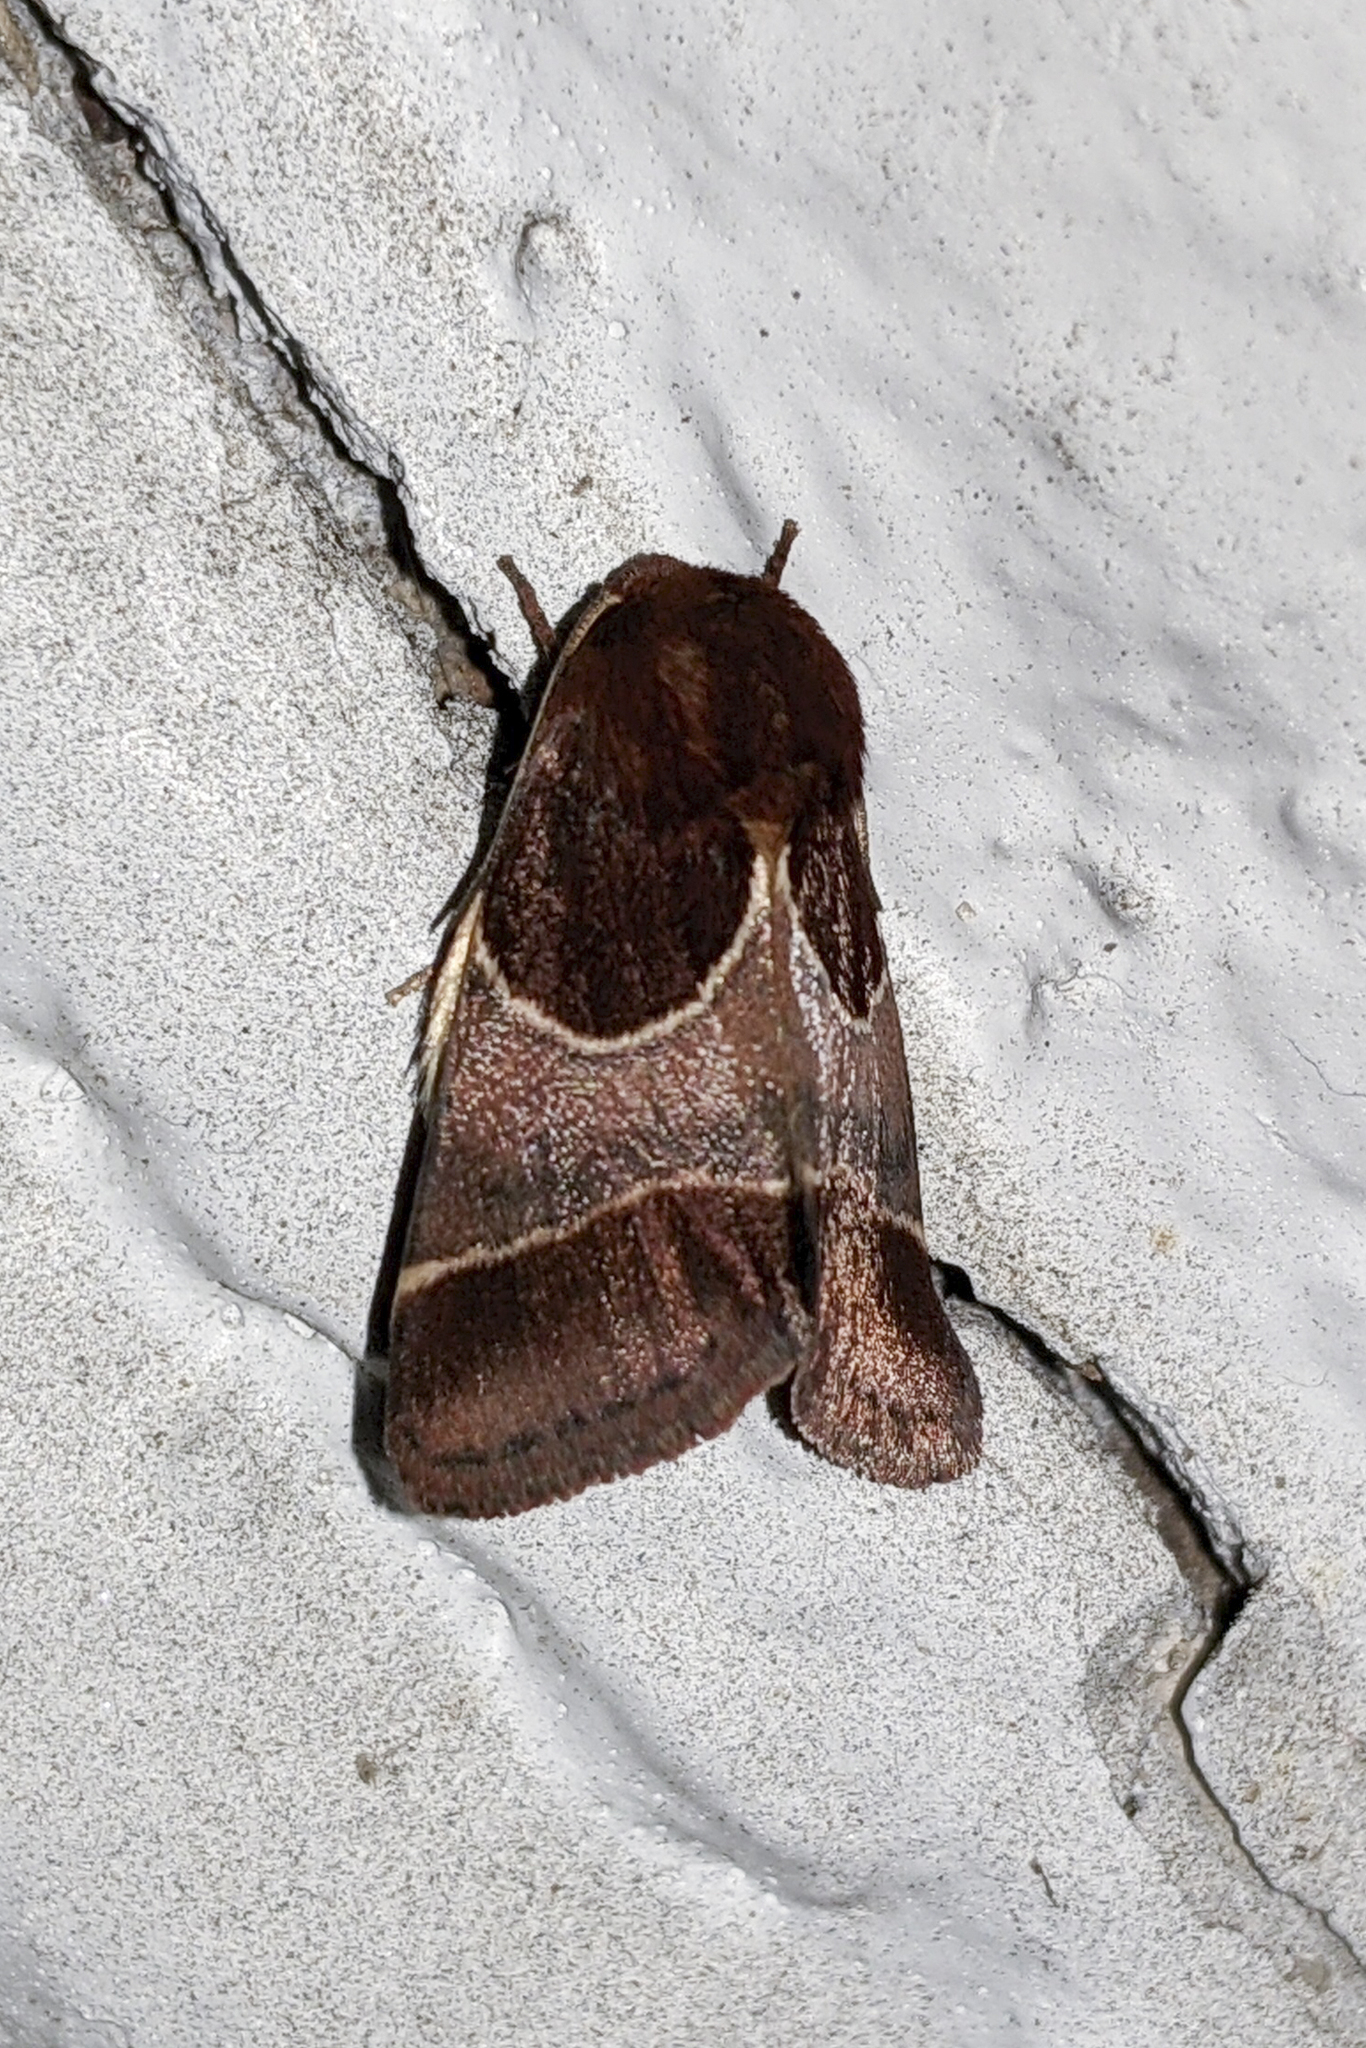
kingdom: Animalia
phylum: Arthropoda
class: Insecta
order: Lepidoptera
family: Noctuidae
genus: Schinia
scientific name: Schinia arcigera
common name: Arcigera flower moth
